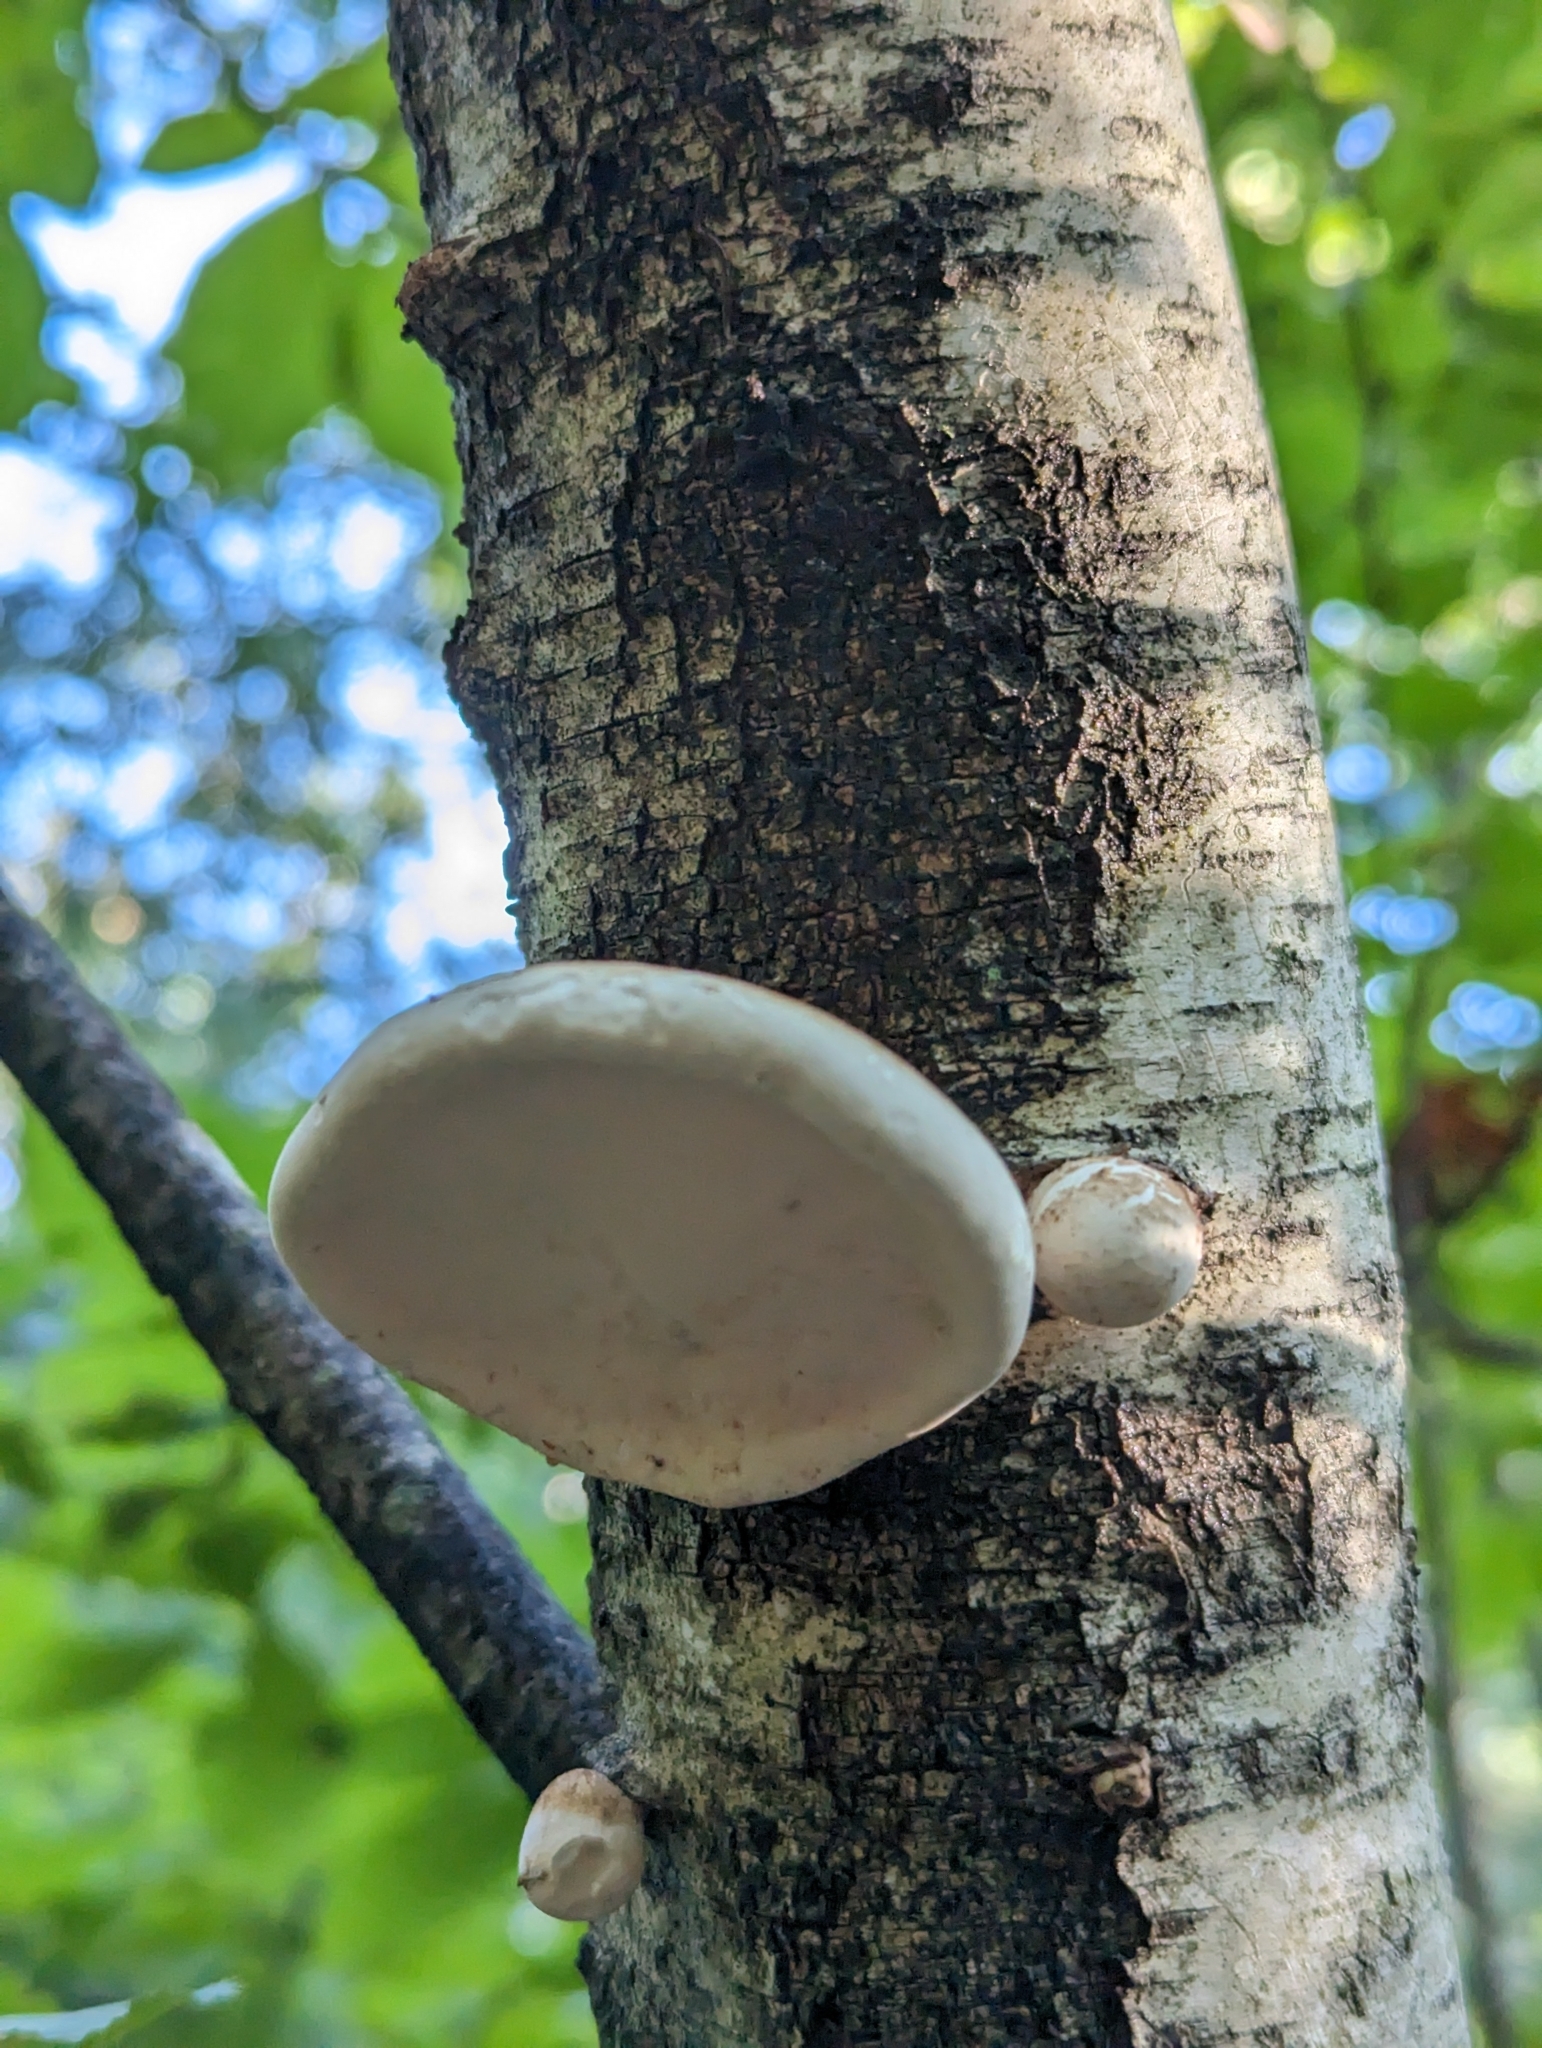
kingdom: Fungi
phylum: Basidiomycota
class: Agaricomycetes
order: Polyporales
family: Fomitopsidaceae
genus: Fomitopsis
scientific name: Fomitopsis betulina
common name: Birch polypore
